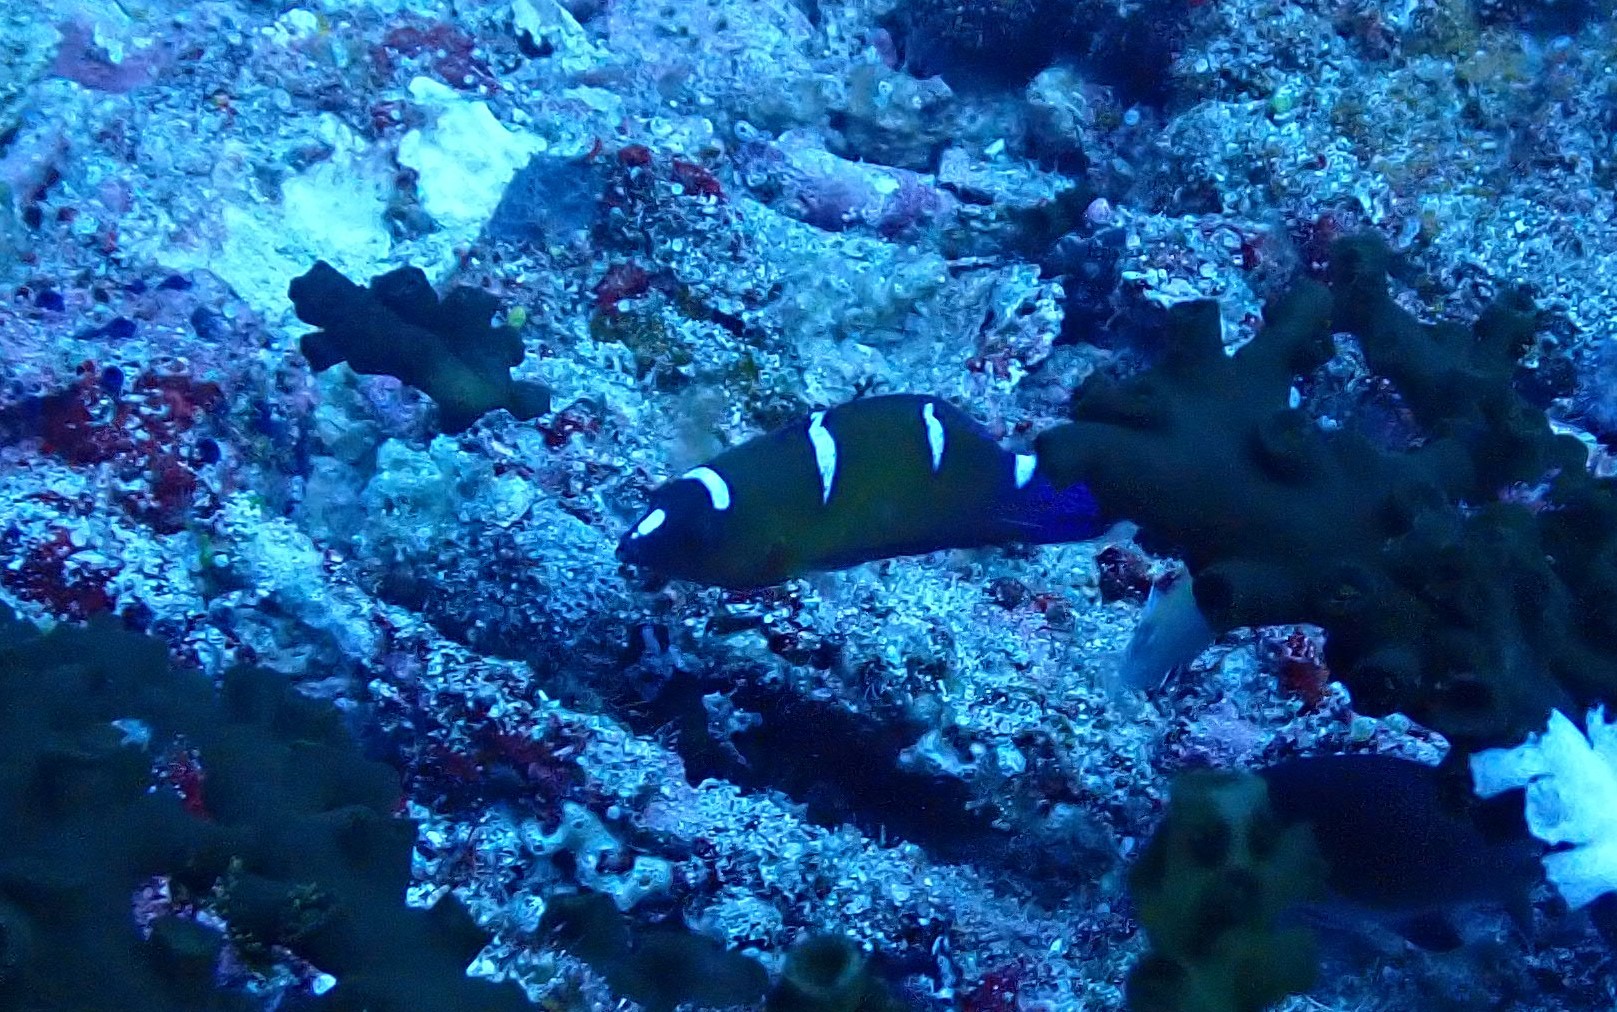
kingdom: Animalia
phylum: Chordata
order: Perciformes
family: Labridae
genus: Coris
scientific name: Coris gaimard
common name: Yellowtail coris
